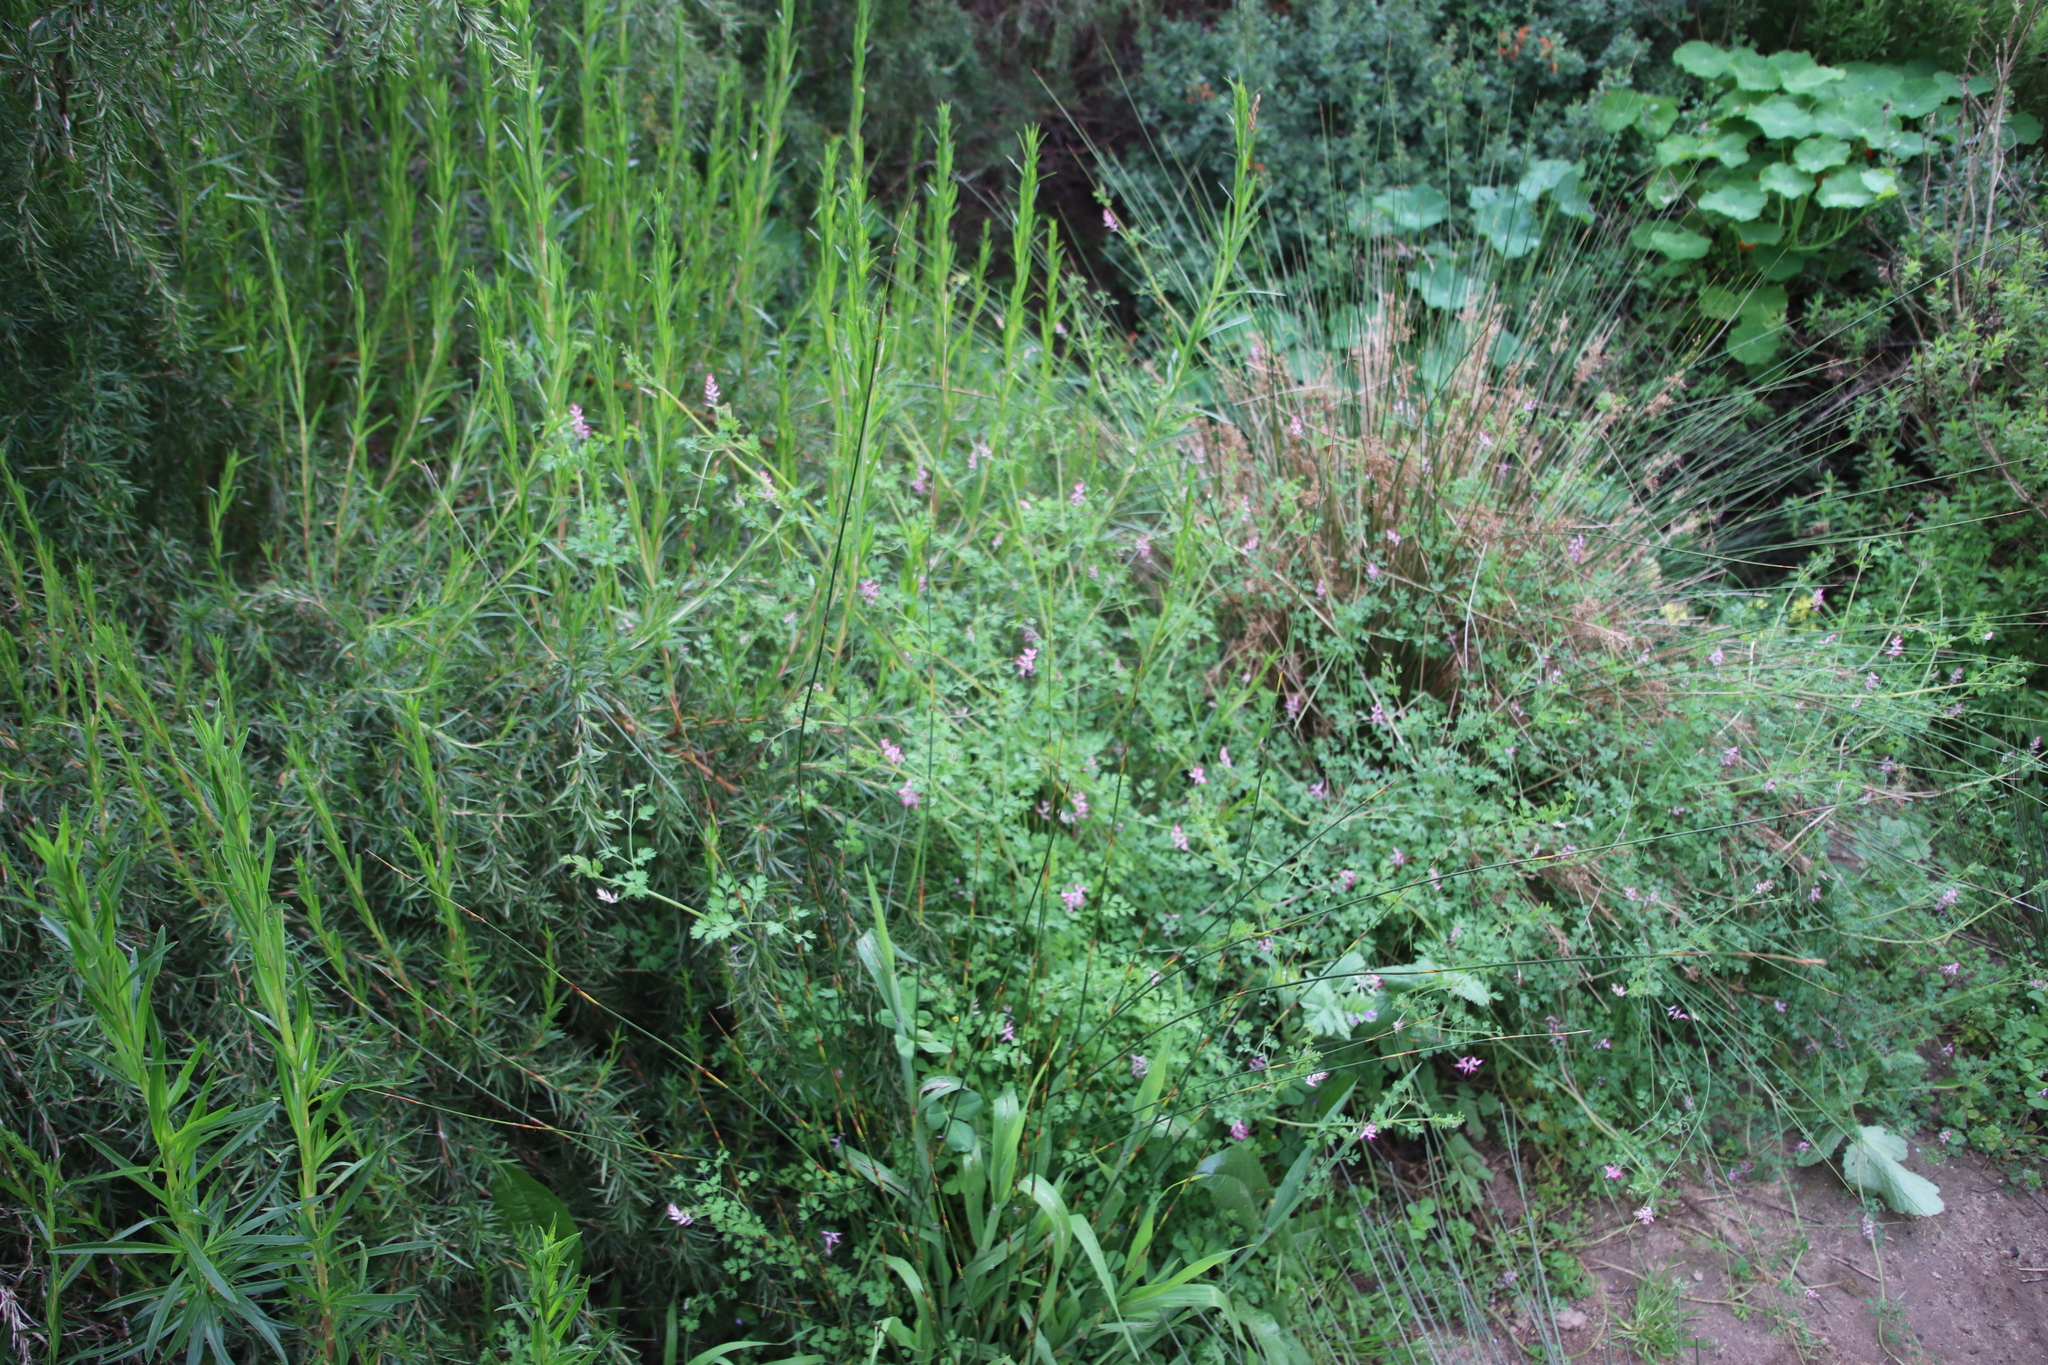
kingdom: Plantae
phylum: Tracheophyta
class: Magnoliopsida
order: Ranunculales
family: Papaveraceae
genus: Fumaria
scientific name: Fumaria muralis
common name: Common ramping-fumitory
